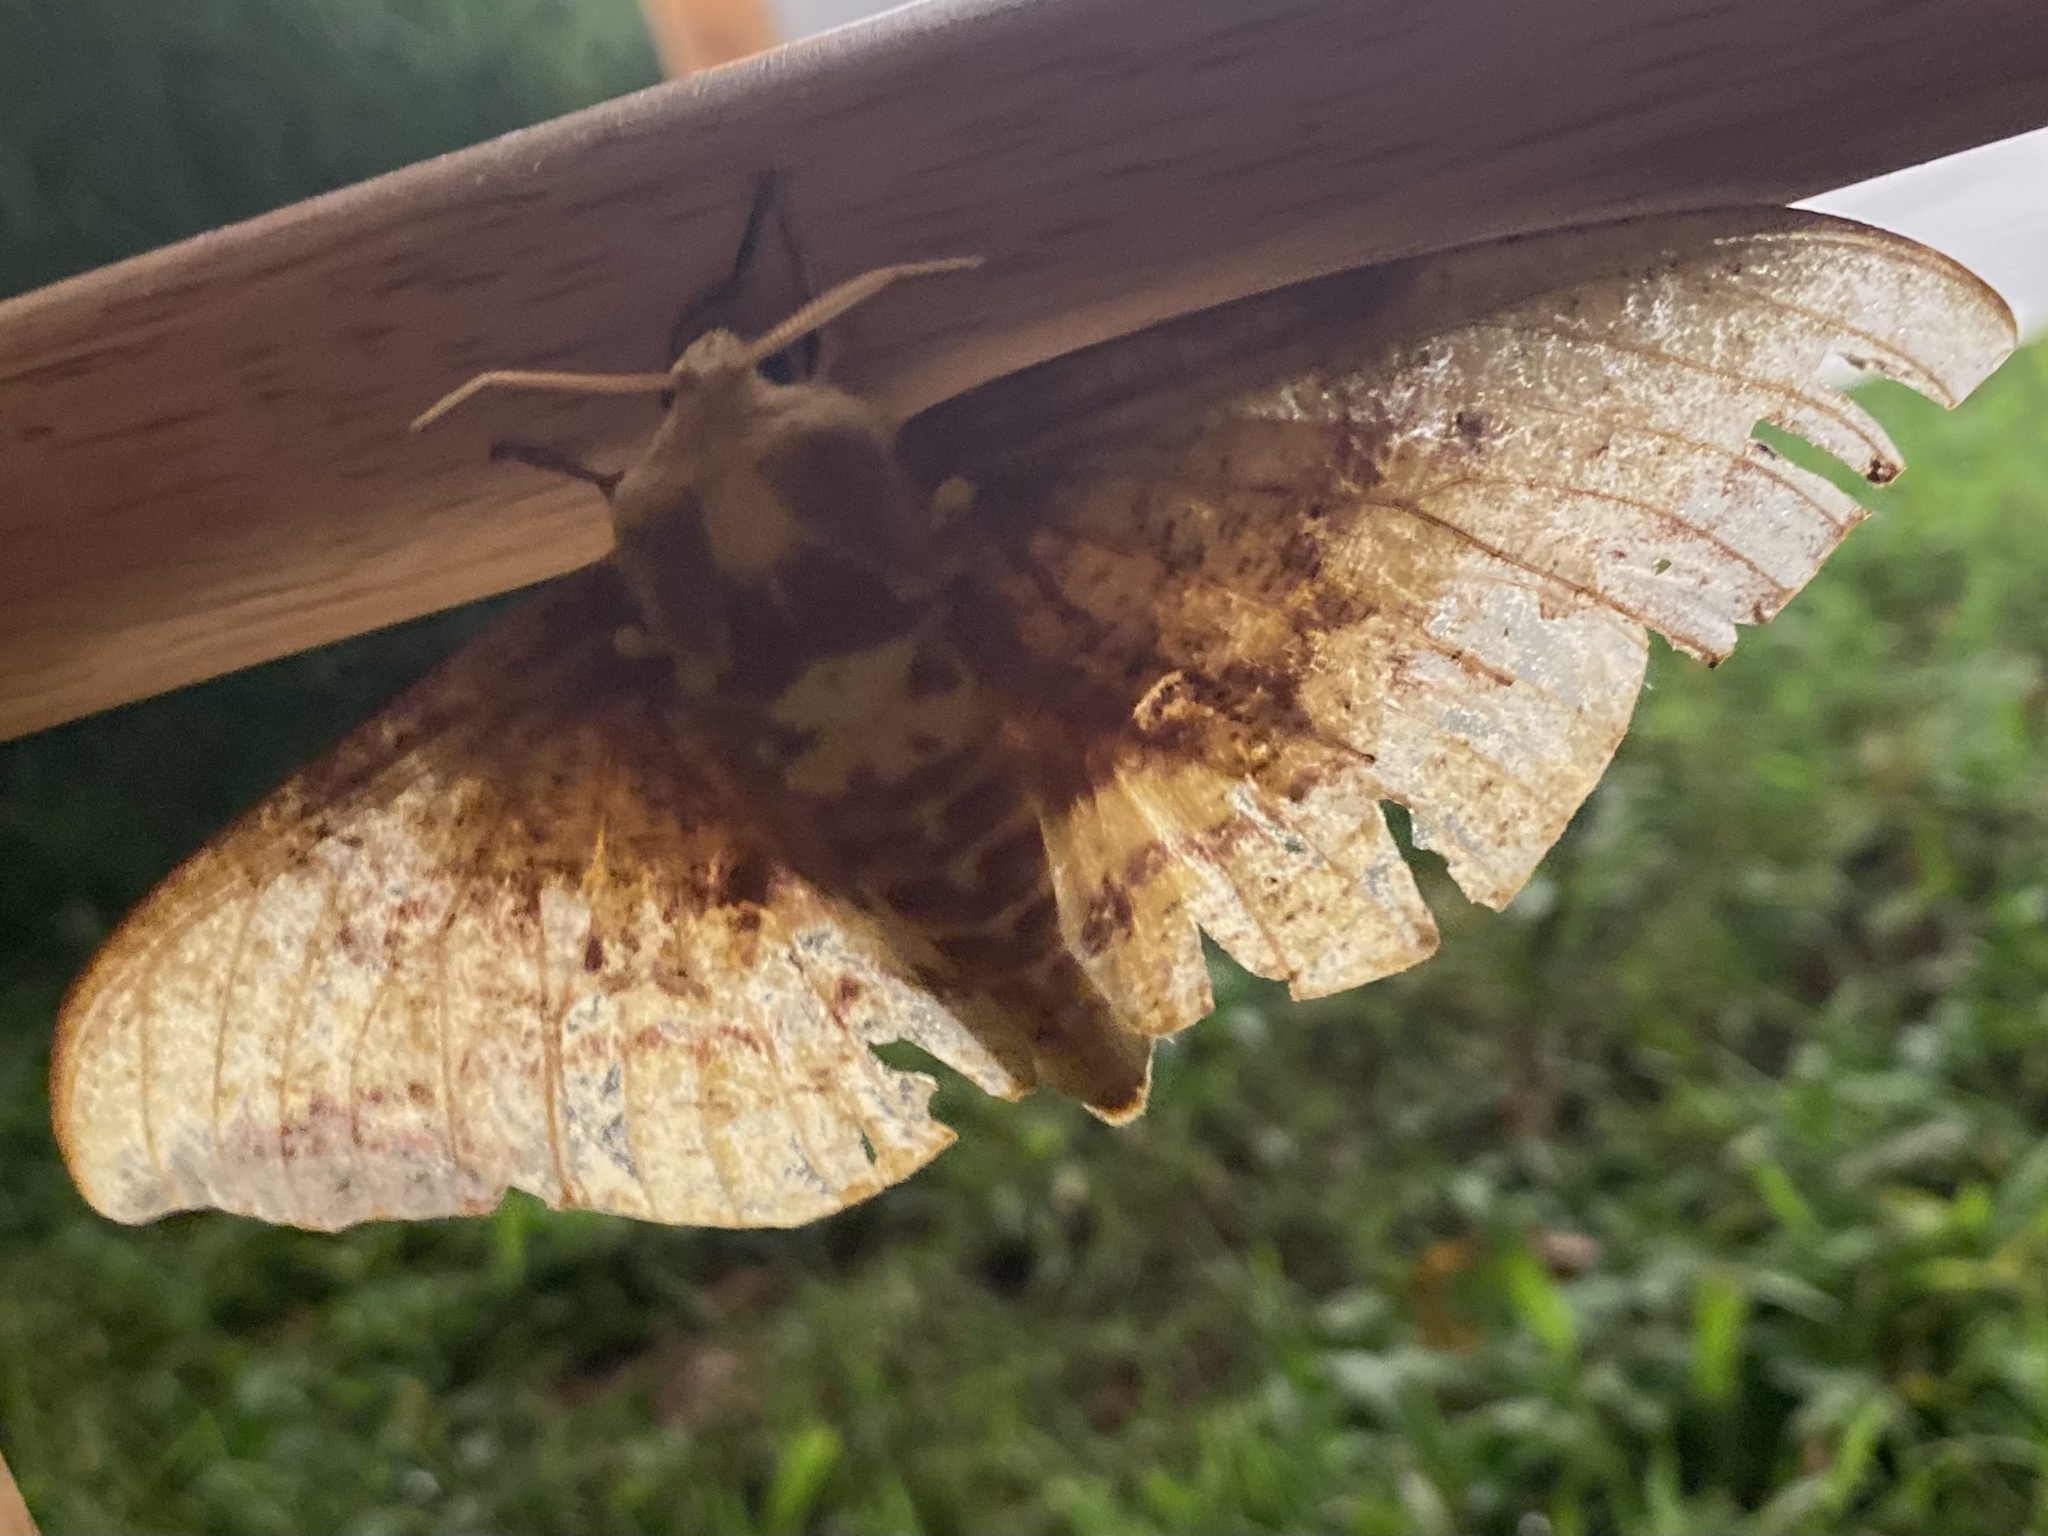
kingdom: Animalia
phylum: Arthropoda
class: Insecta
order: Lepidoptera
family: Saturniidae
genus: Eacles
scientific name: Eacles imperialis
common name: Imperial moth
